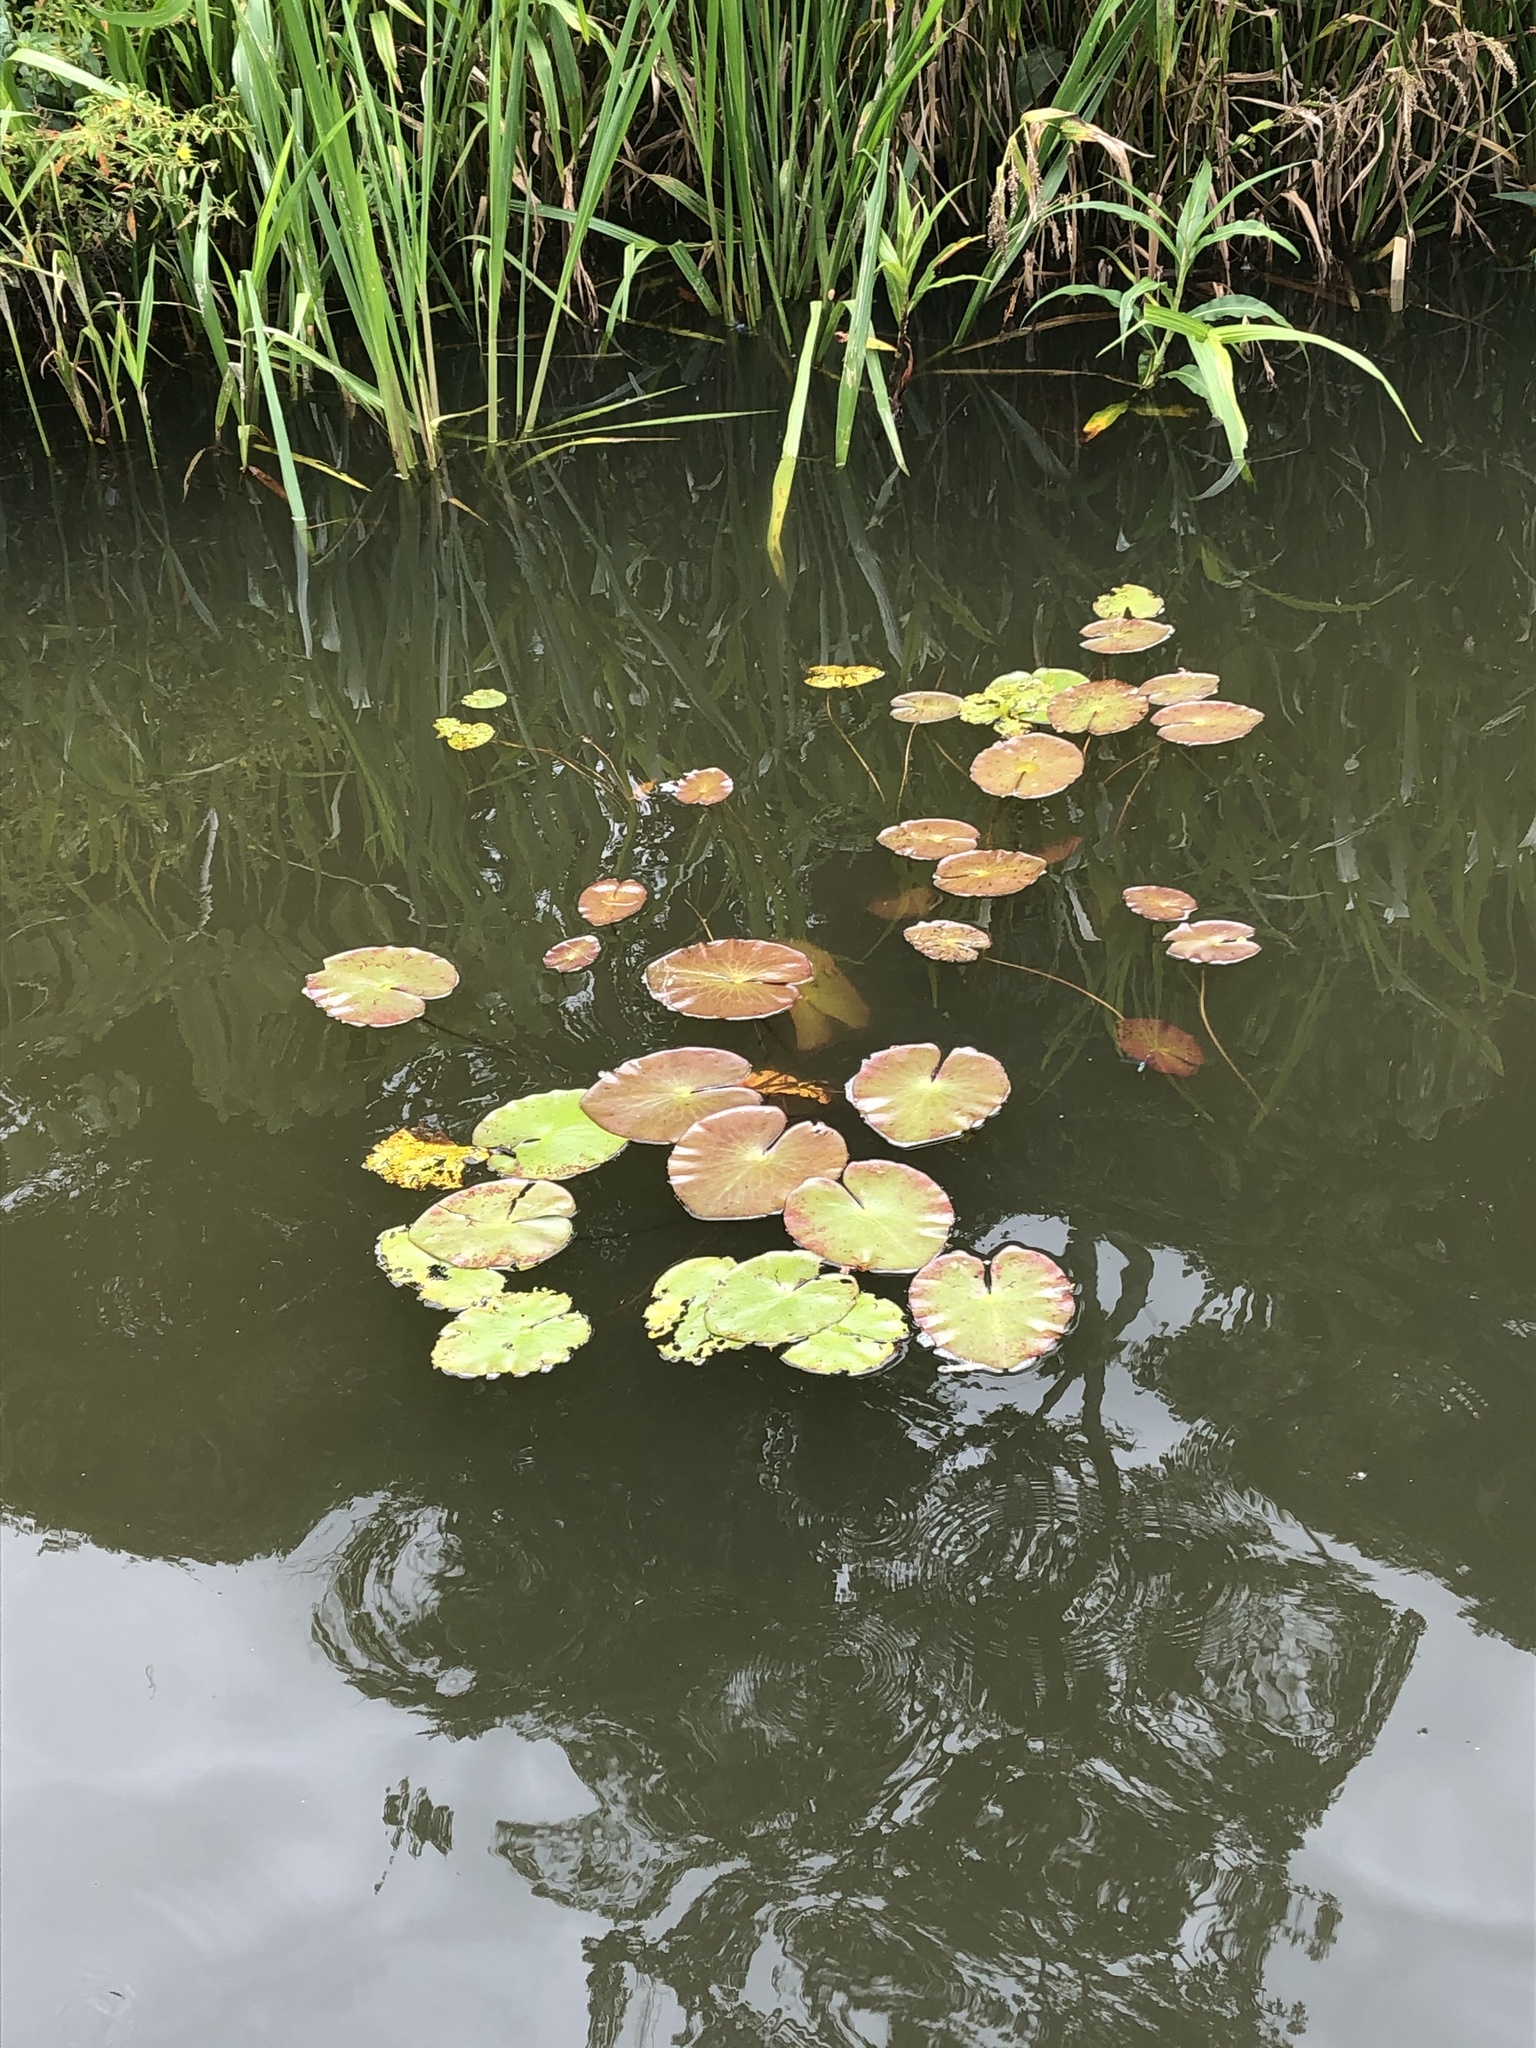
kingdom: Plantae
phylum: Tracheophyta
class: Magnoliopsida
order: Nymphaeales
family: Nymphaeaceae
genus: Nymphaea
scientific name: Nymphaea amazonum
